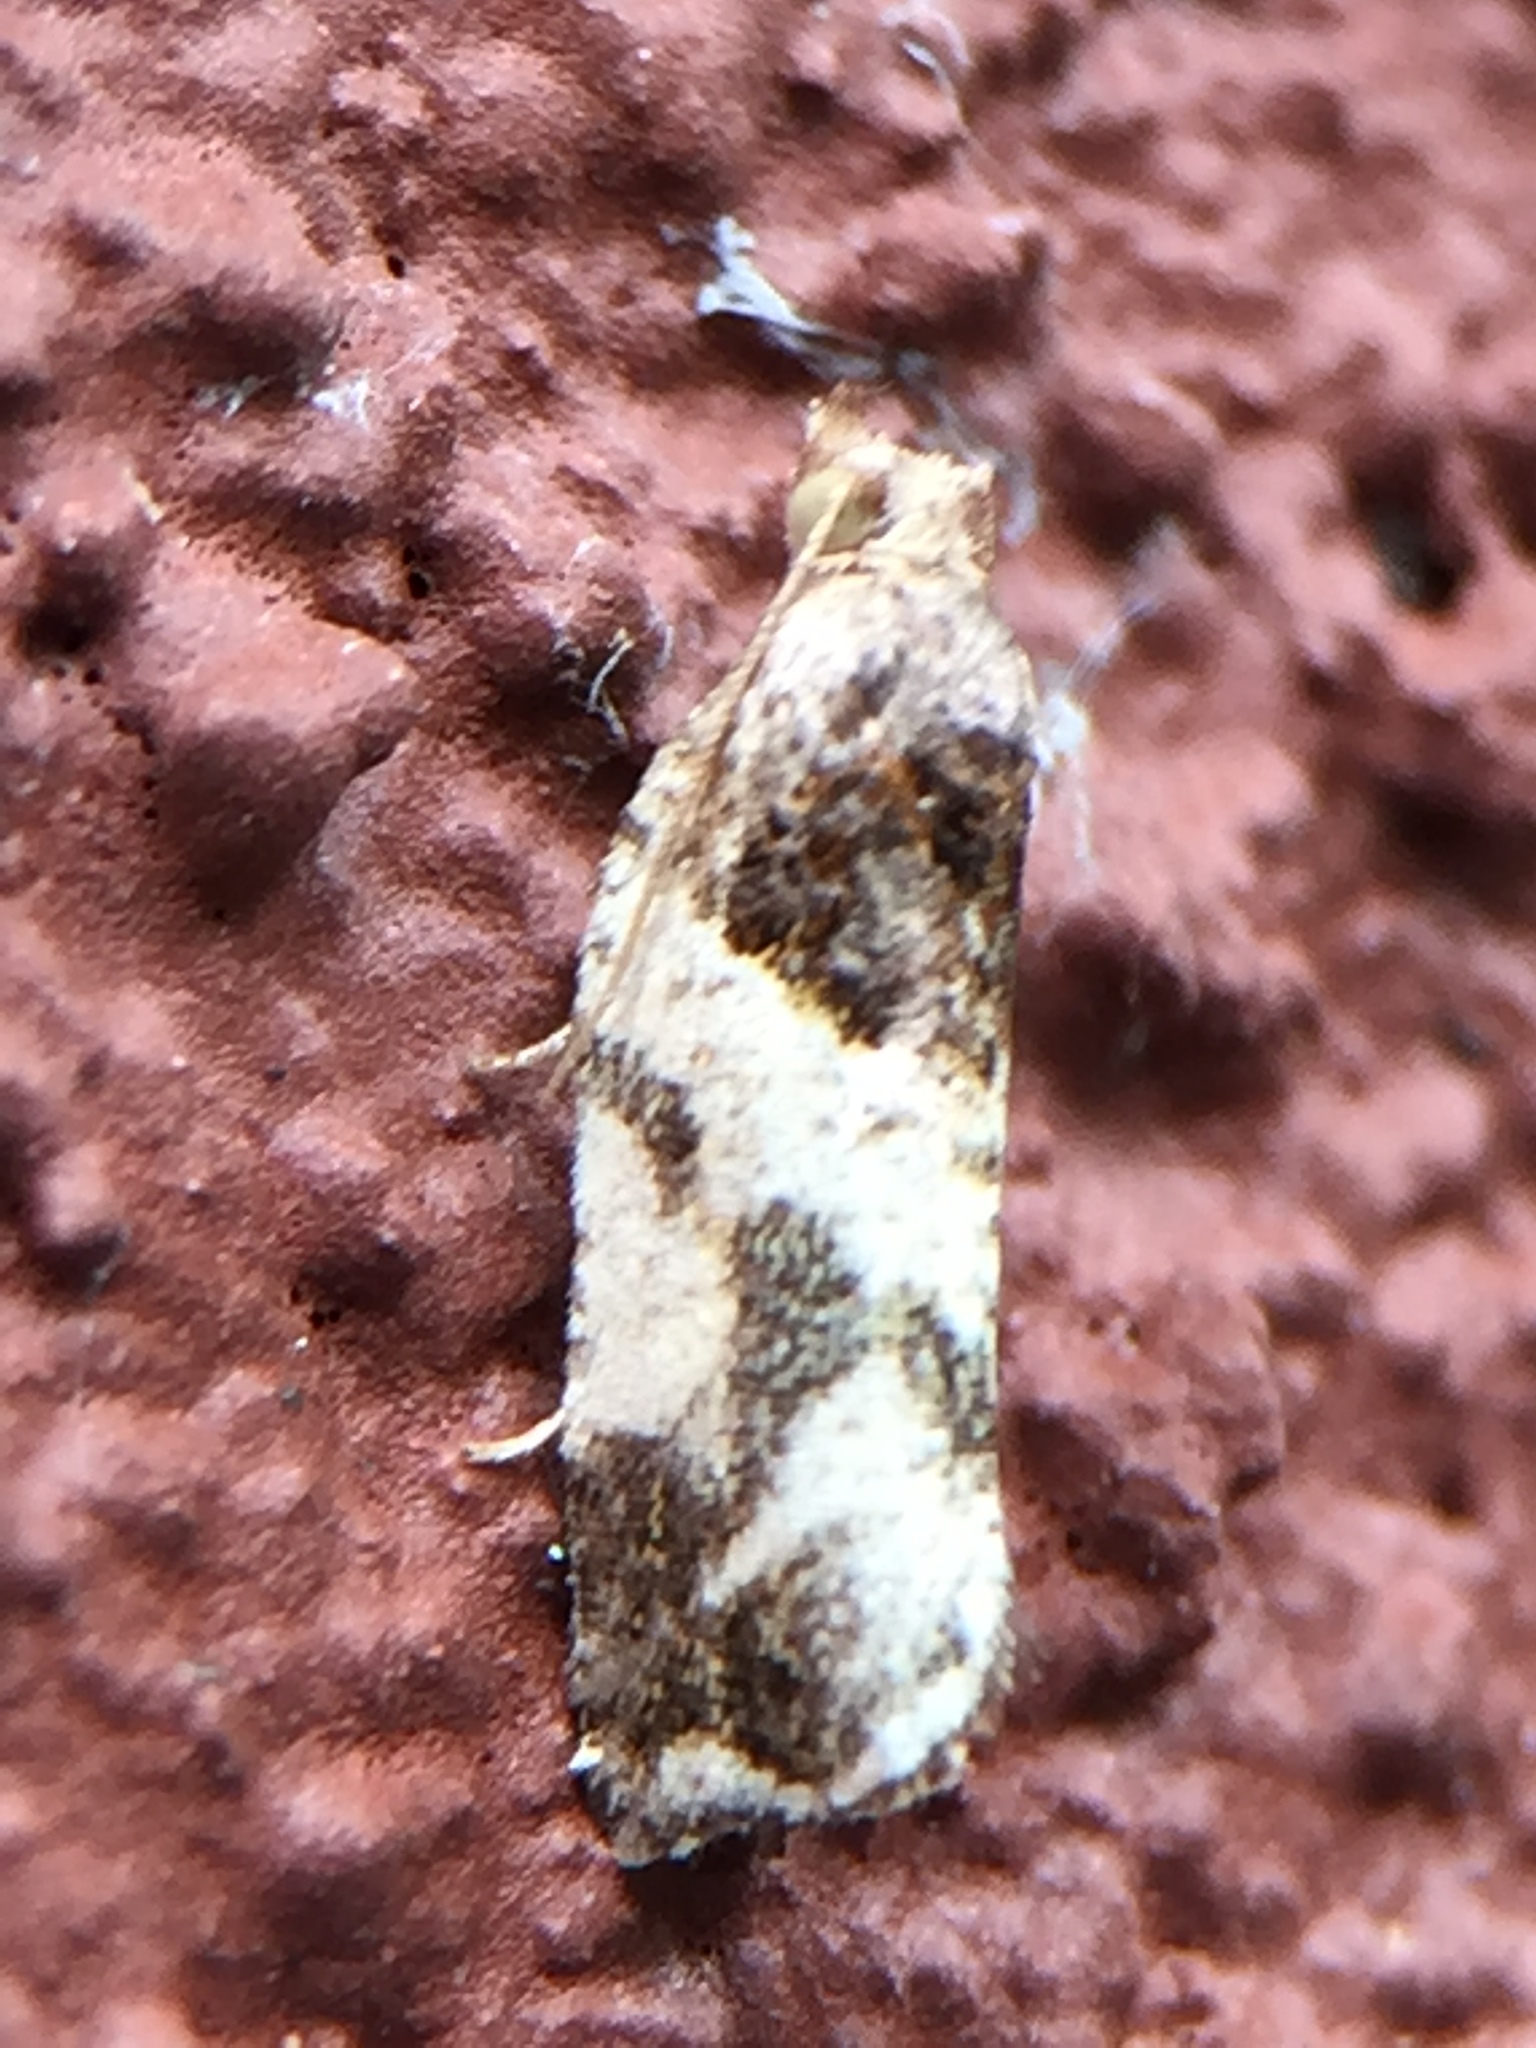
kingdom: Animalia
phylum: Arthropoda
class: Insecta
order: Lepidoptera
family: Tortricidae
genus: Pyrgotis
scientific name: Pyrgotis plagiatana
